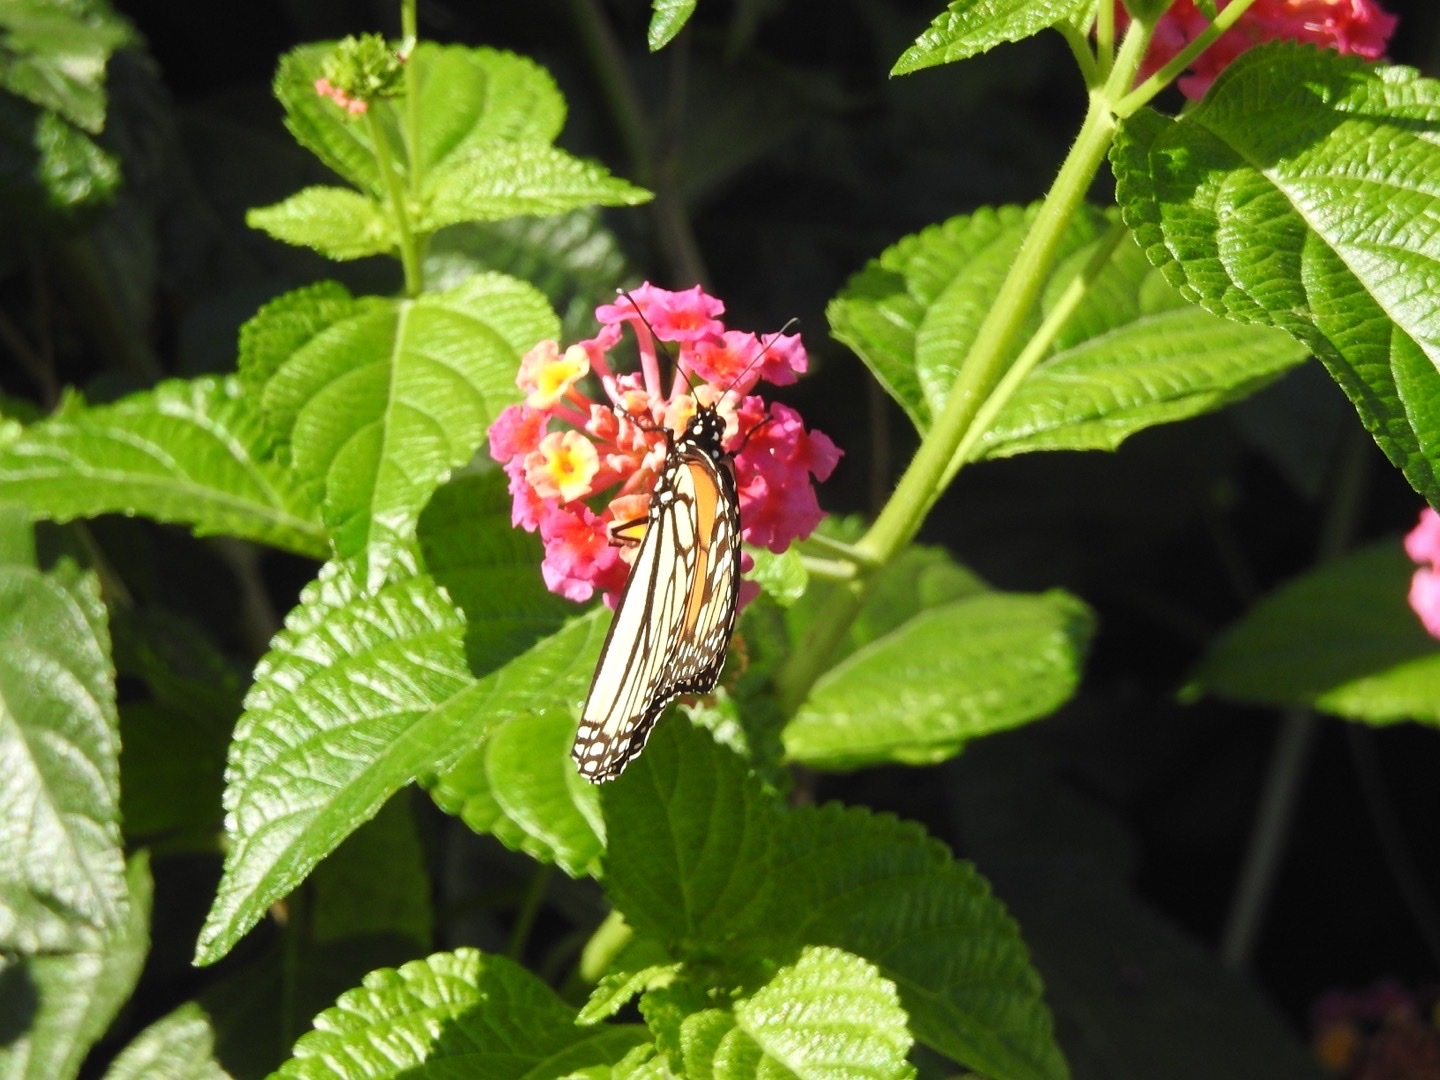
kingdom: Animalia
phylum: Arthropoda
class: Insecta
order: Lepidoptera
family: Nymphalidae
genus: Danaus
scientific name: Danaus plexippus
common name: Monarch
